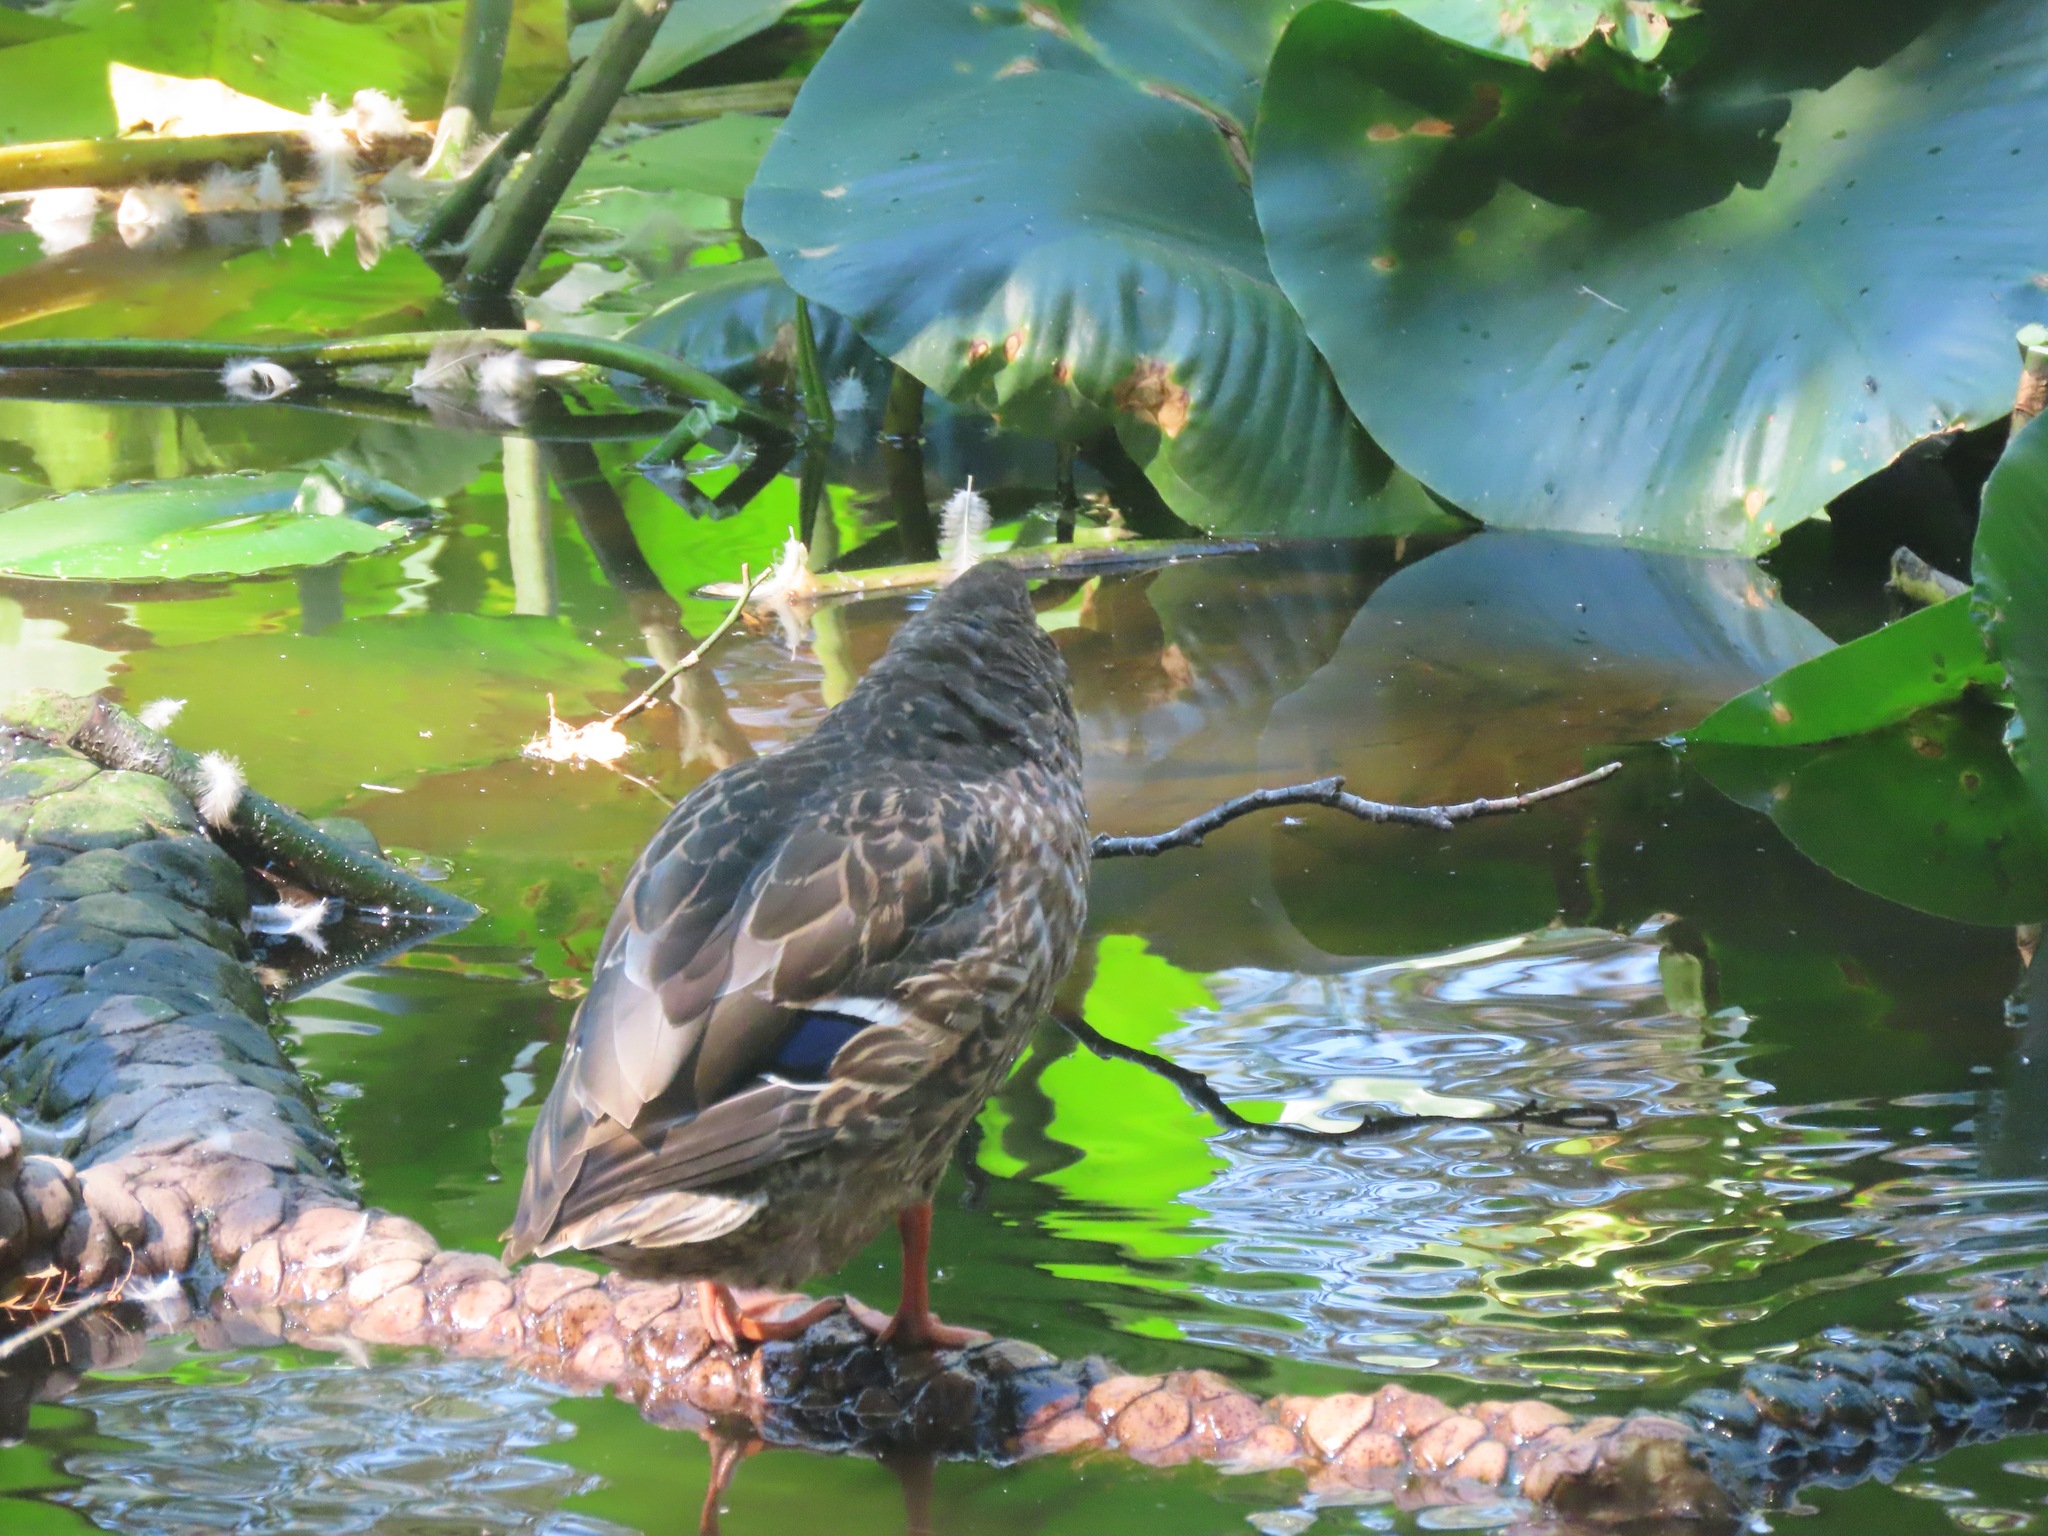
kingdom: Animalia
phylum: Chordata
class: Aves
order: Anseriformes
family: Anatidae
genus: Anas
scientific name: Anas platyrhynchos
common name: Mallard
